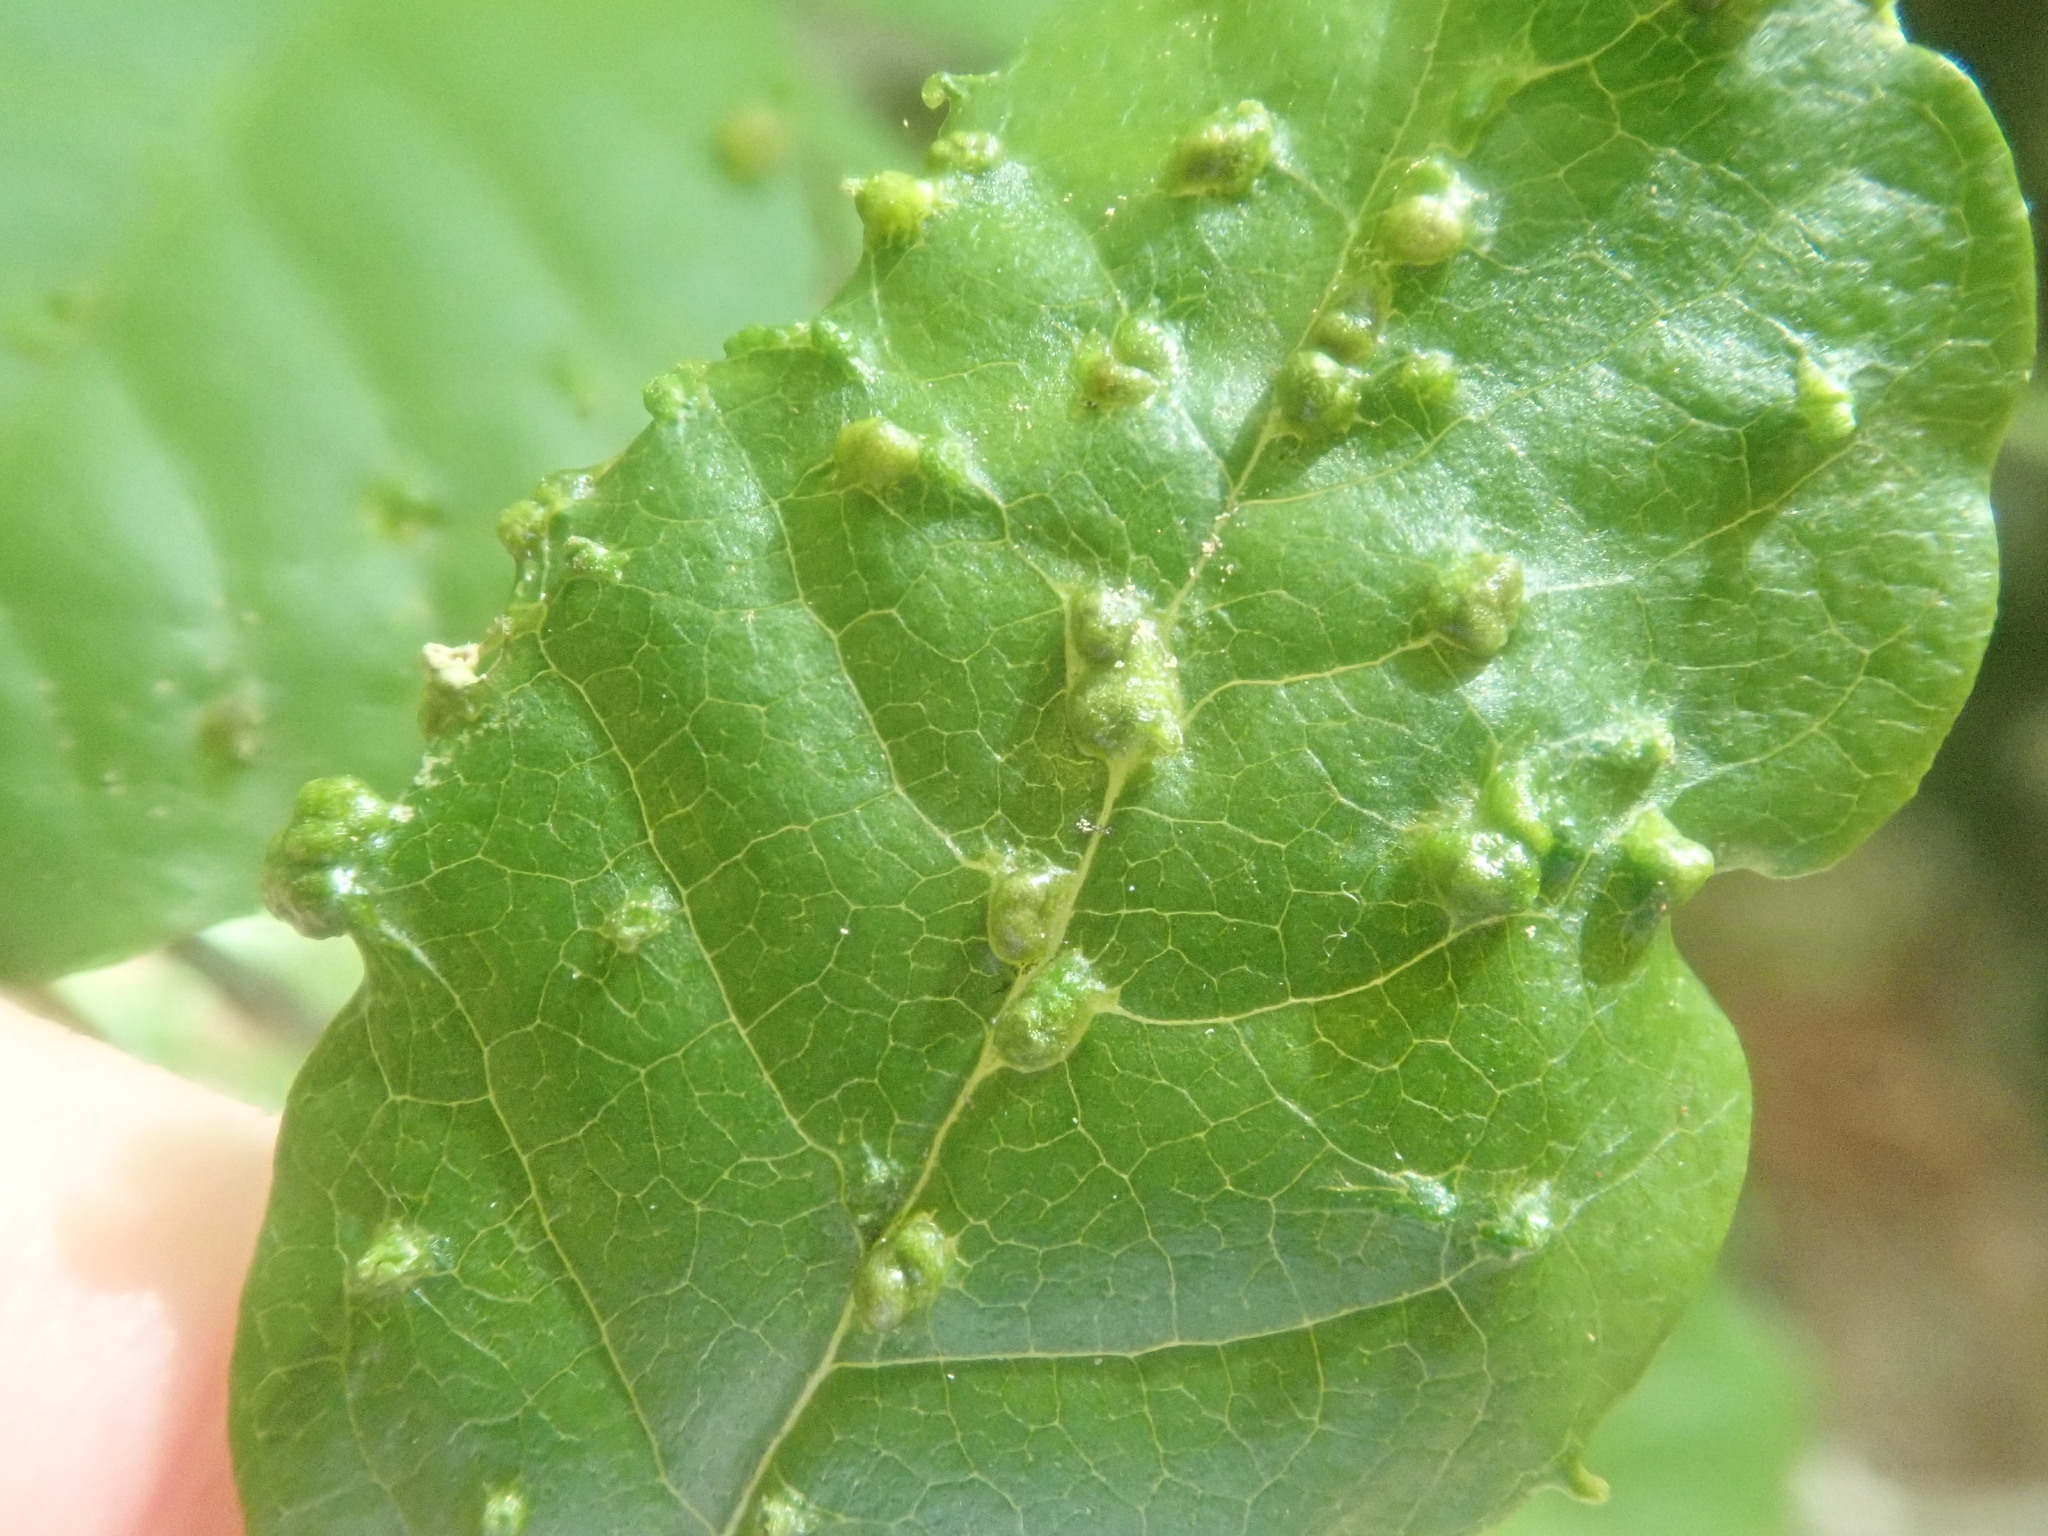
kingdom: Animalia
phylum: Arthropoda
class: Arachnida
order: Trombidiformes
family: Eriophyidae
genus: Aceria
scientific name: Aceria
